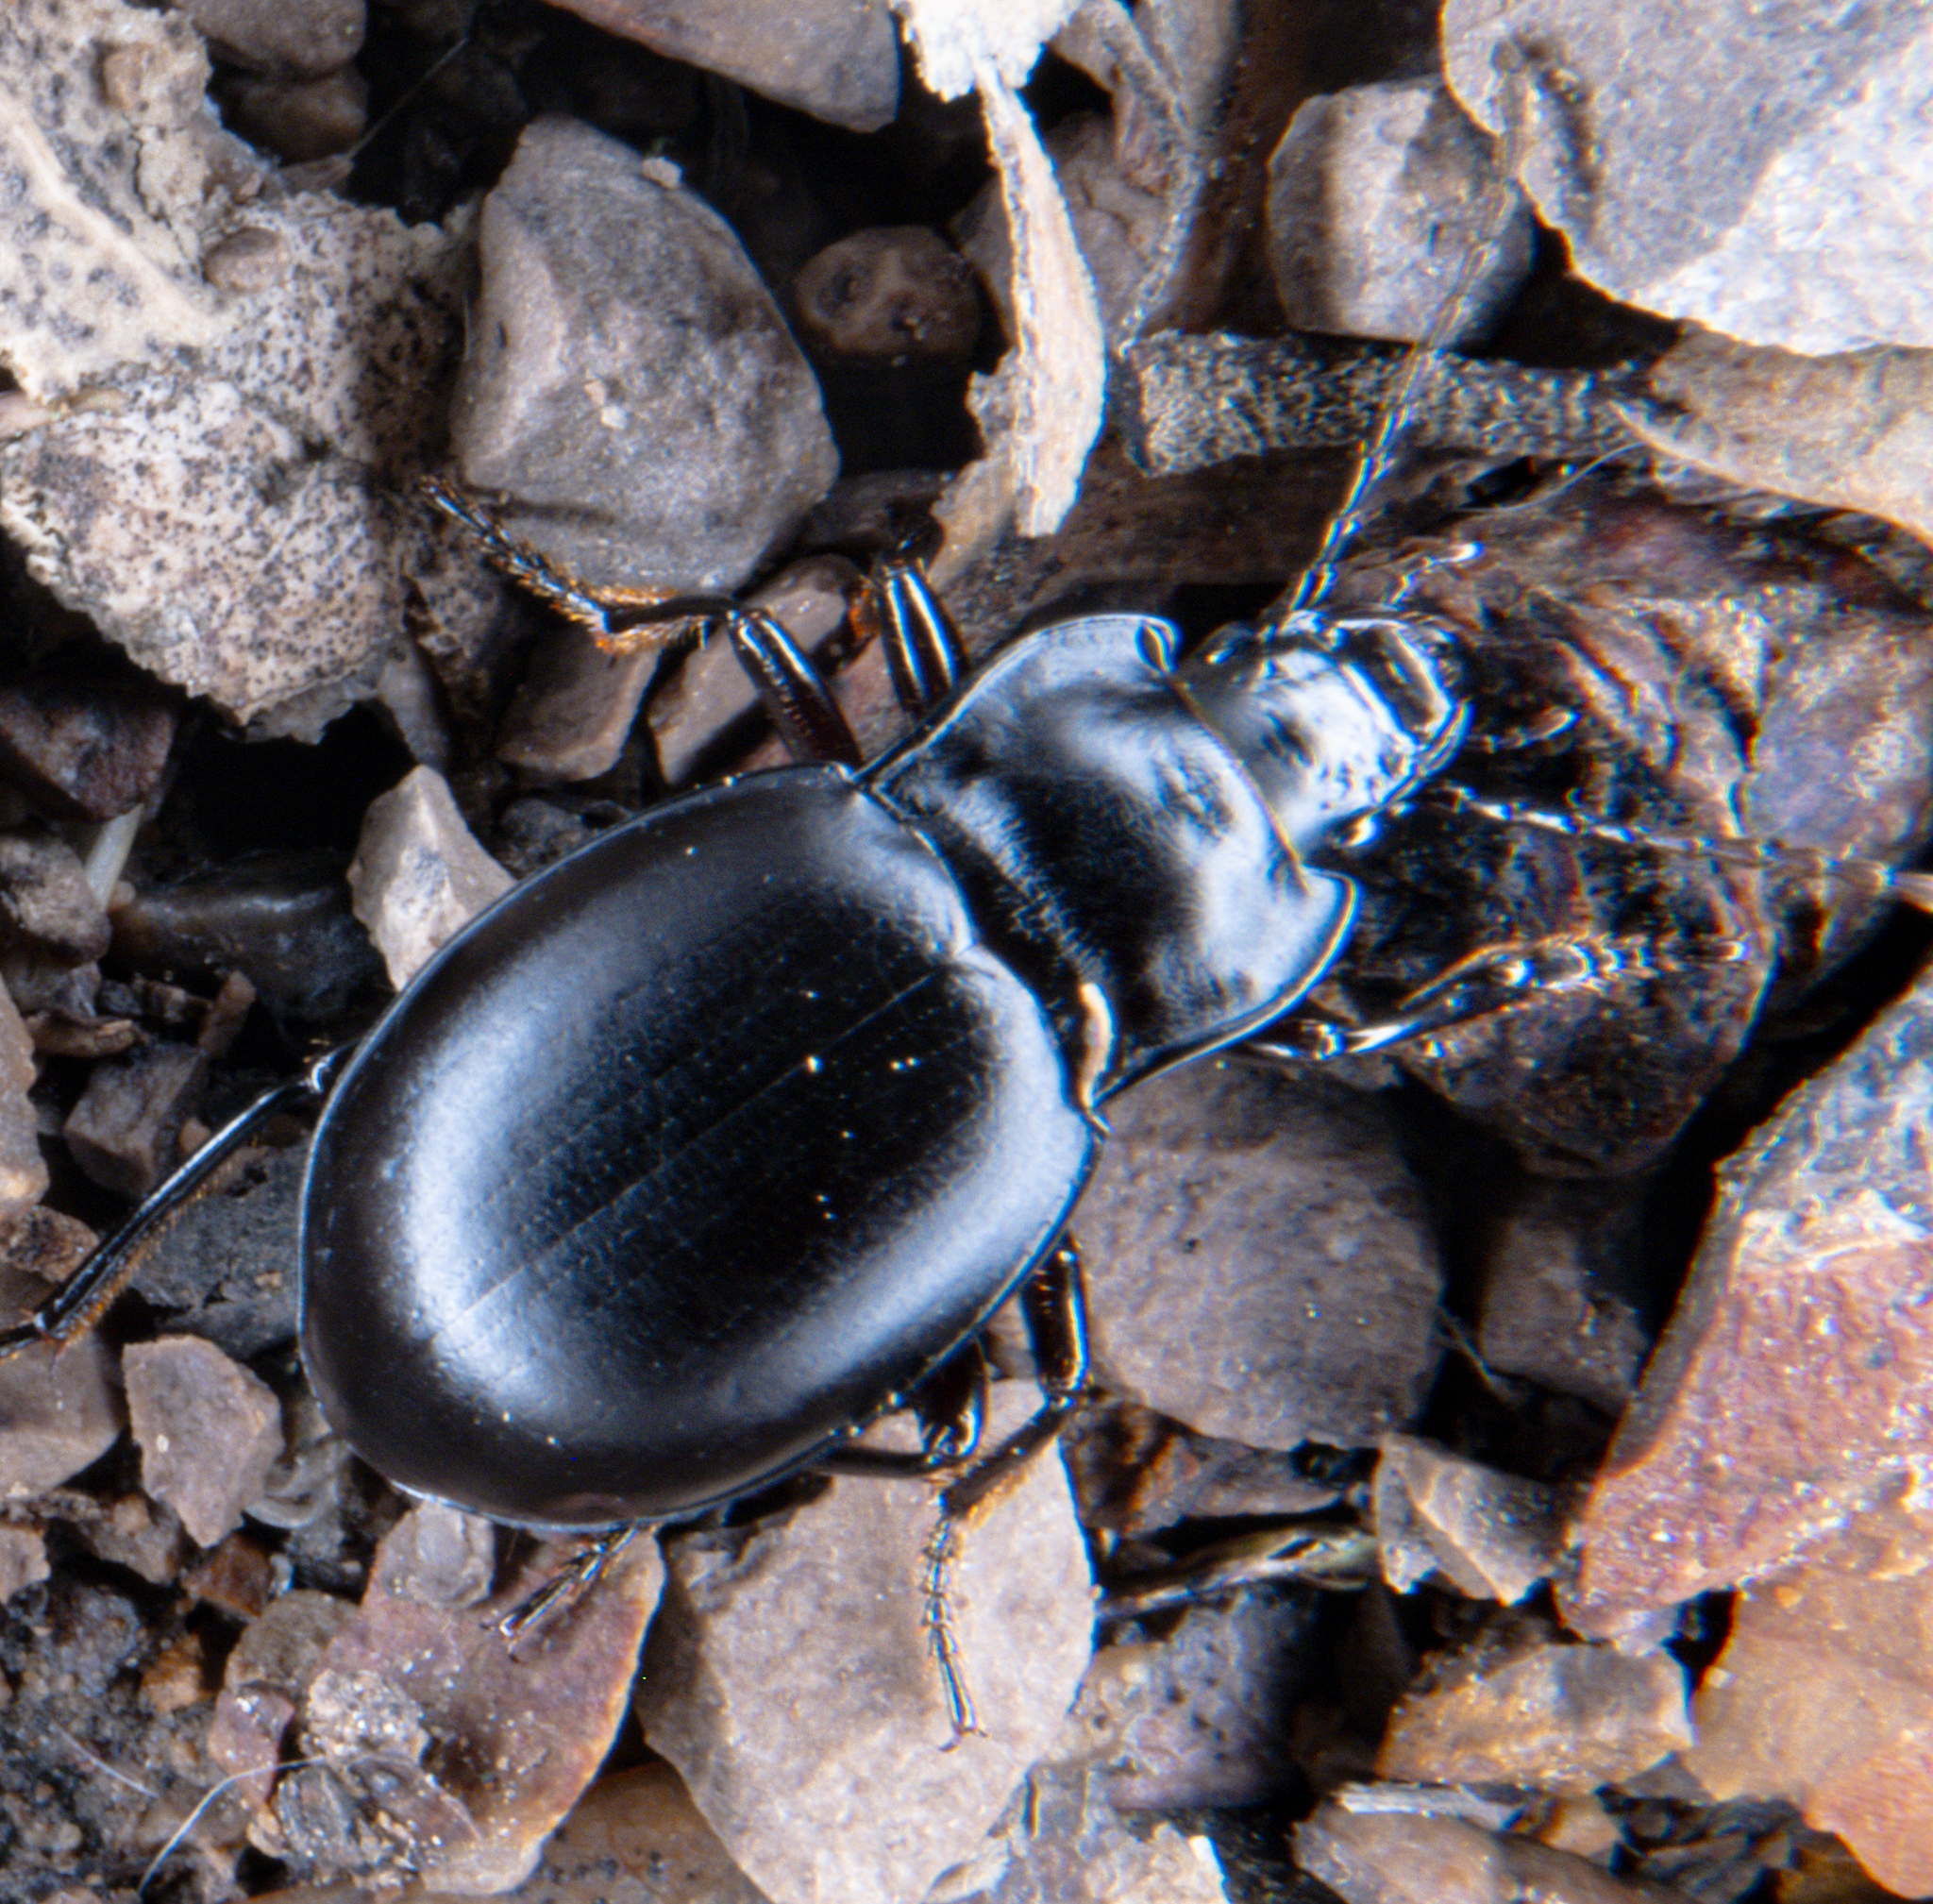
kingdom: Animalia
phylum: Arthropoda
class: Insecta
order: Coleoptera
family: Carabidae
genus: Metrius
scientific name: Metrius contractus
